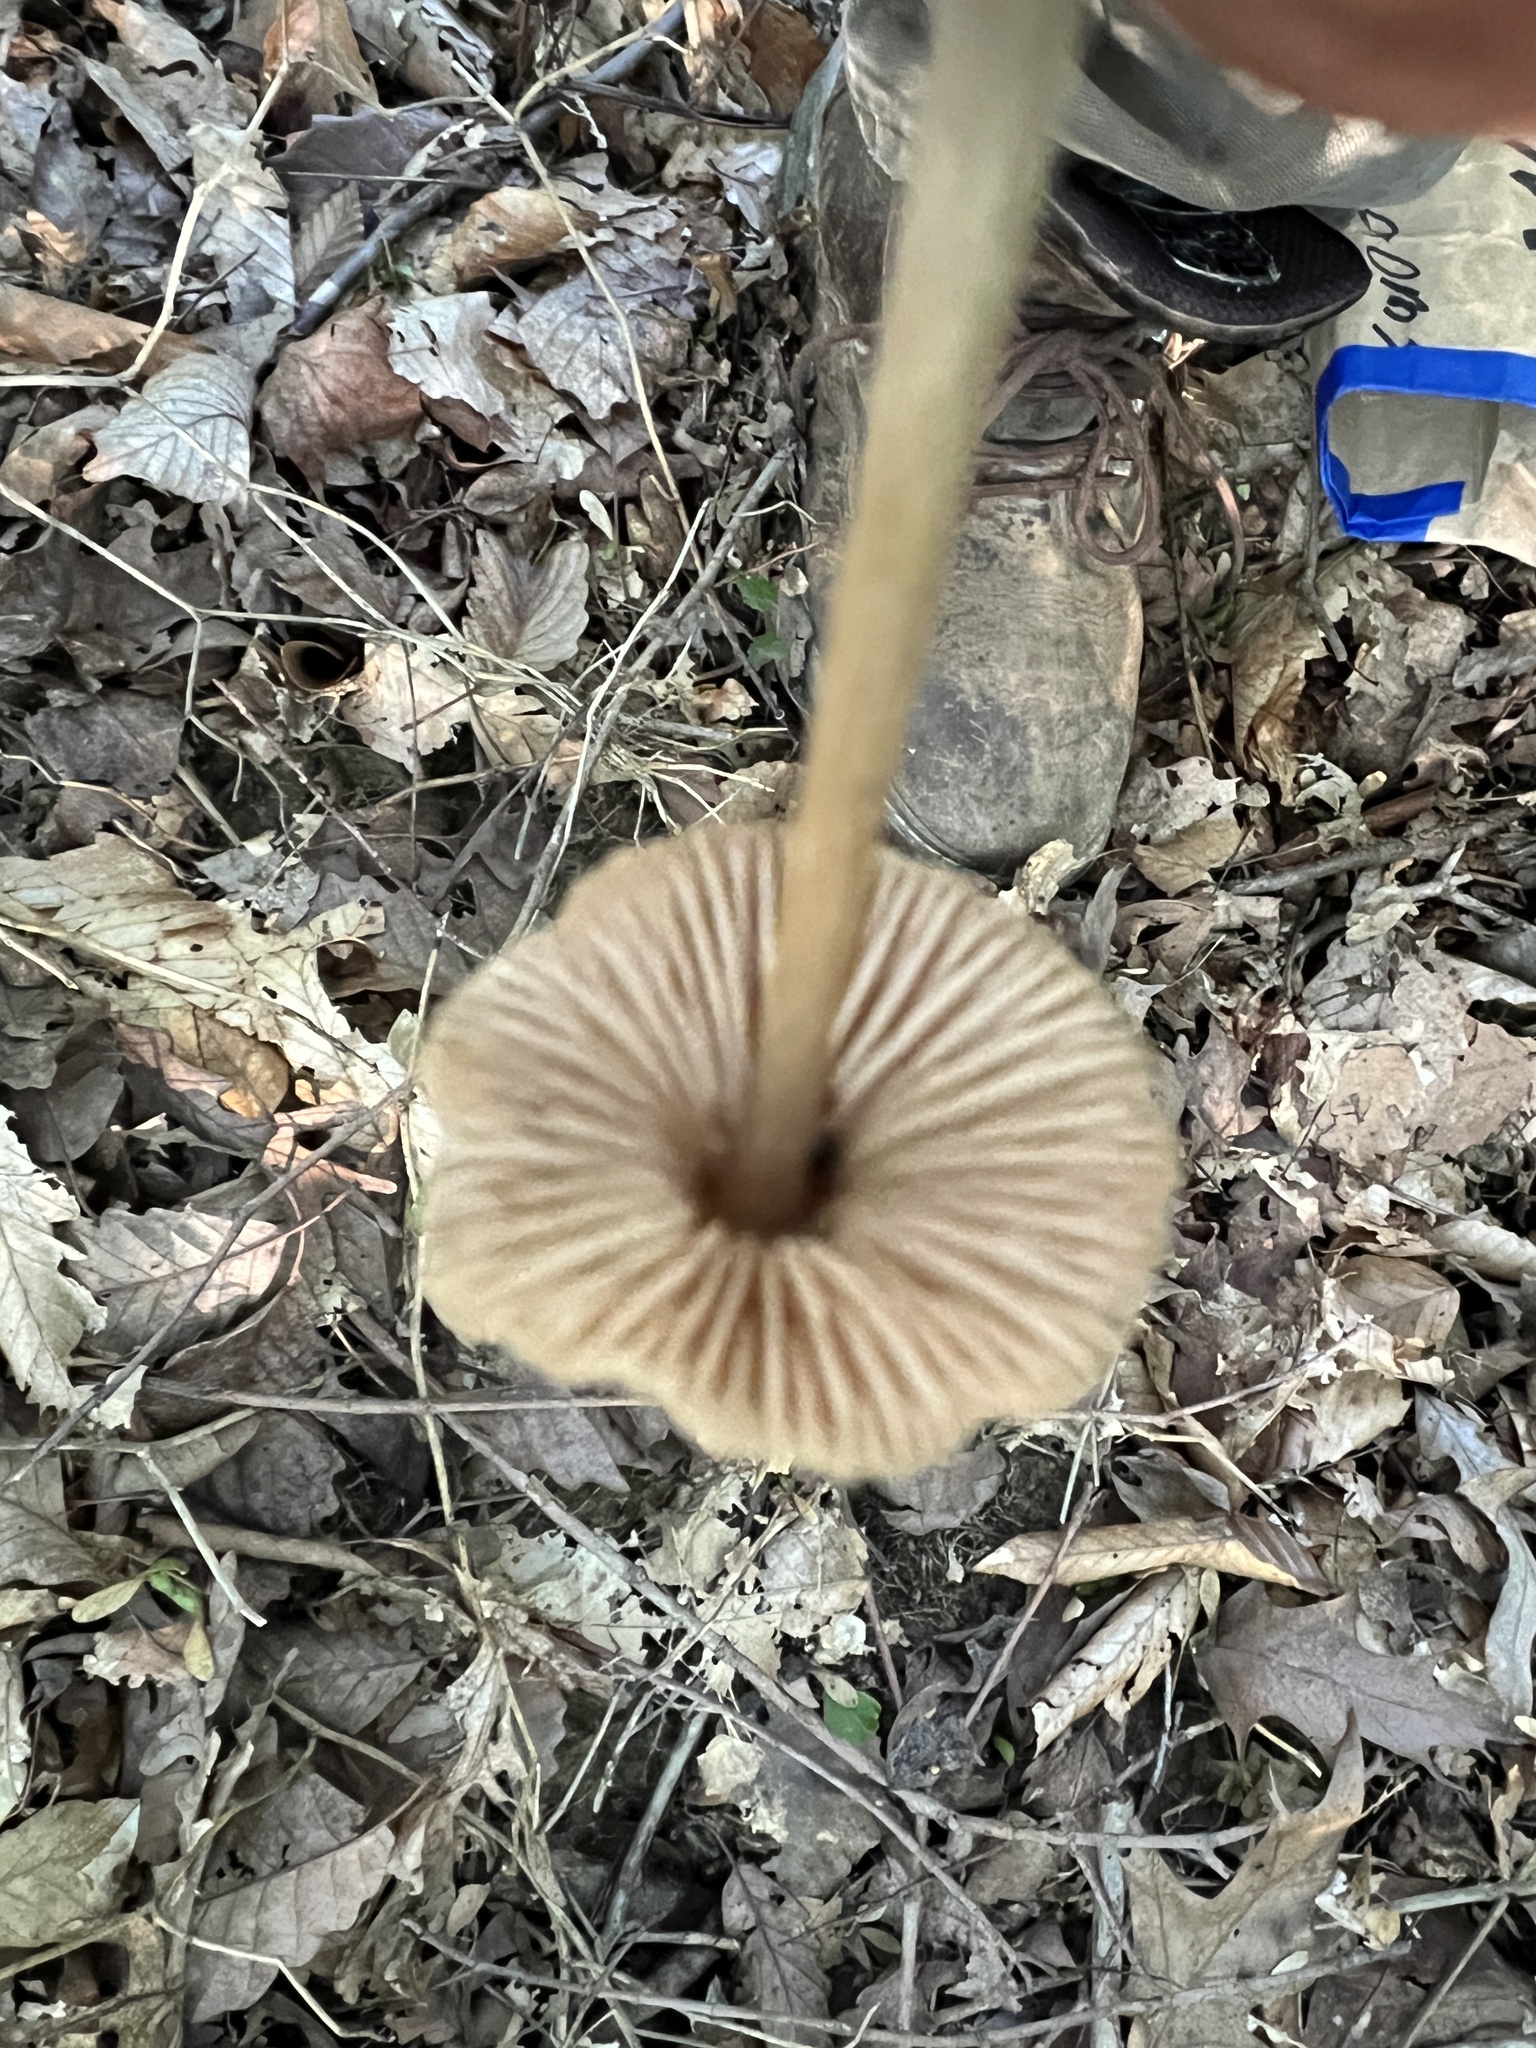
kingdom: Fungi
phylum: Basidiomycota
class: Agaricomycetes
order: Agaricales
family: Entolomataceae
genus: Entoloma
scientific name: Entoloma vernum
